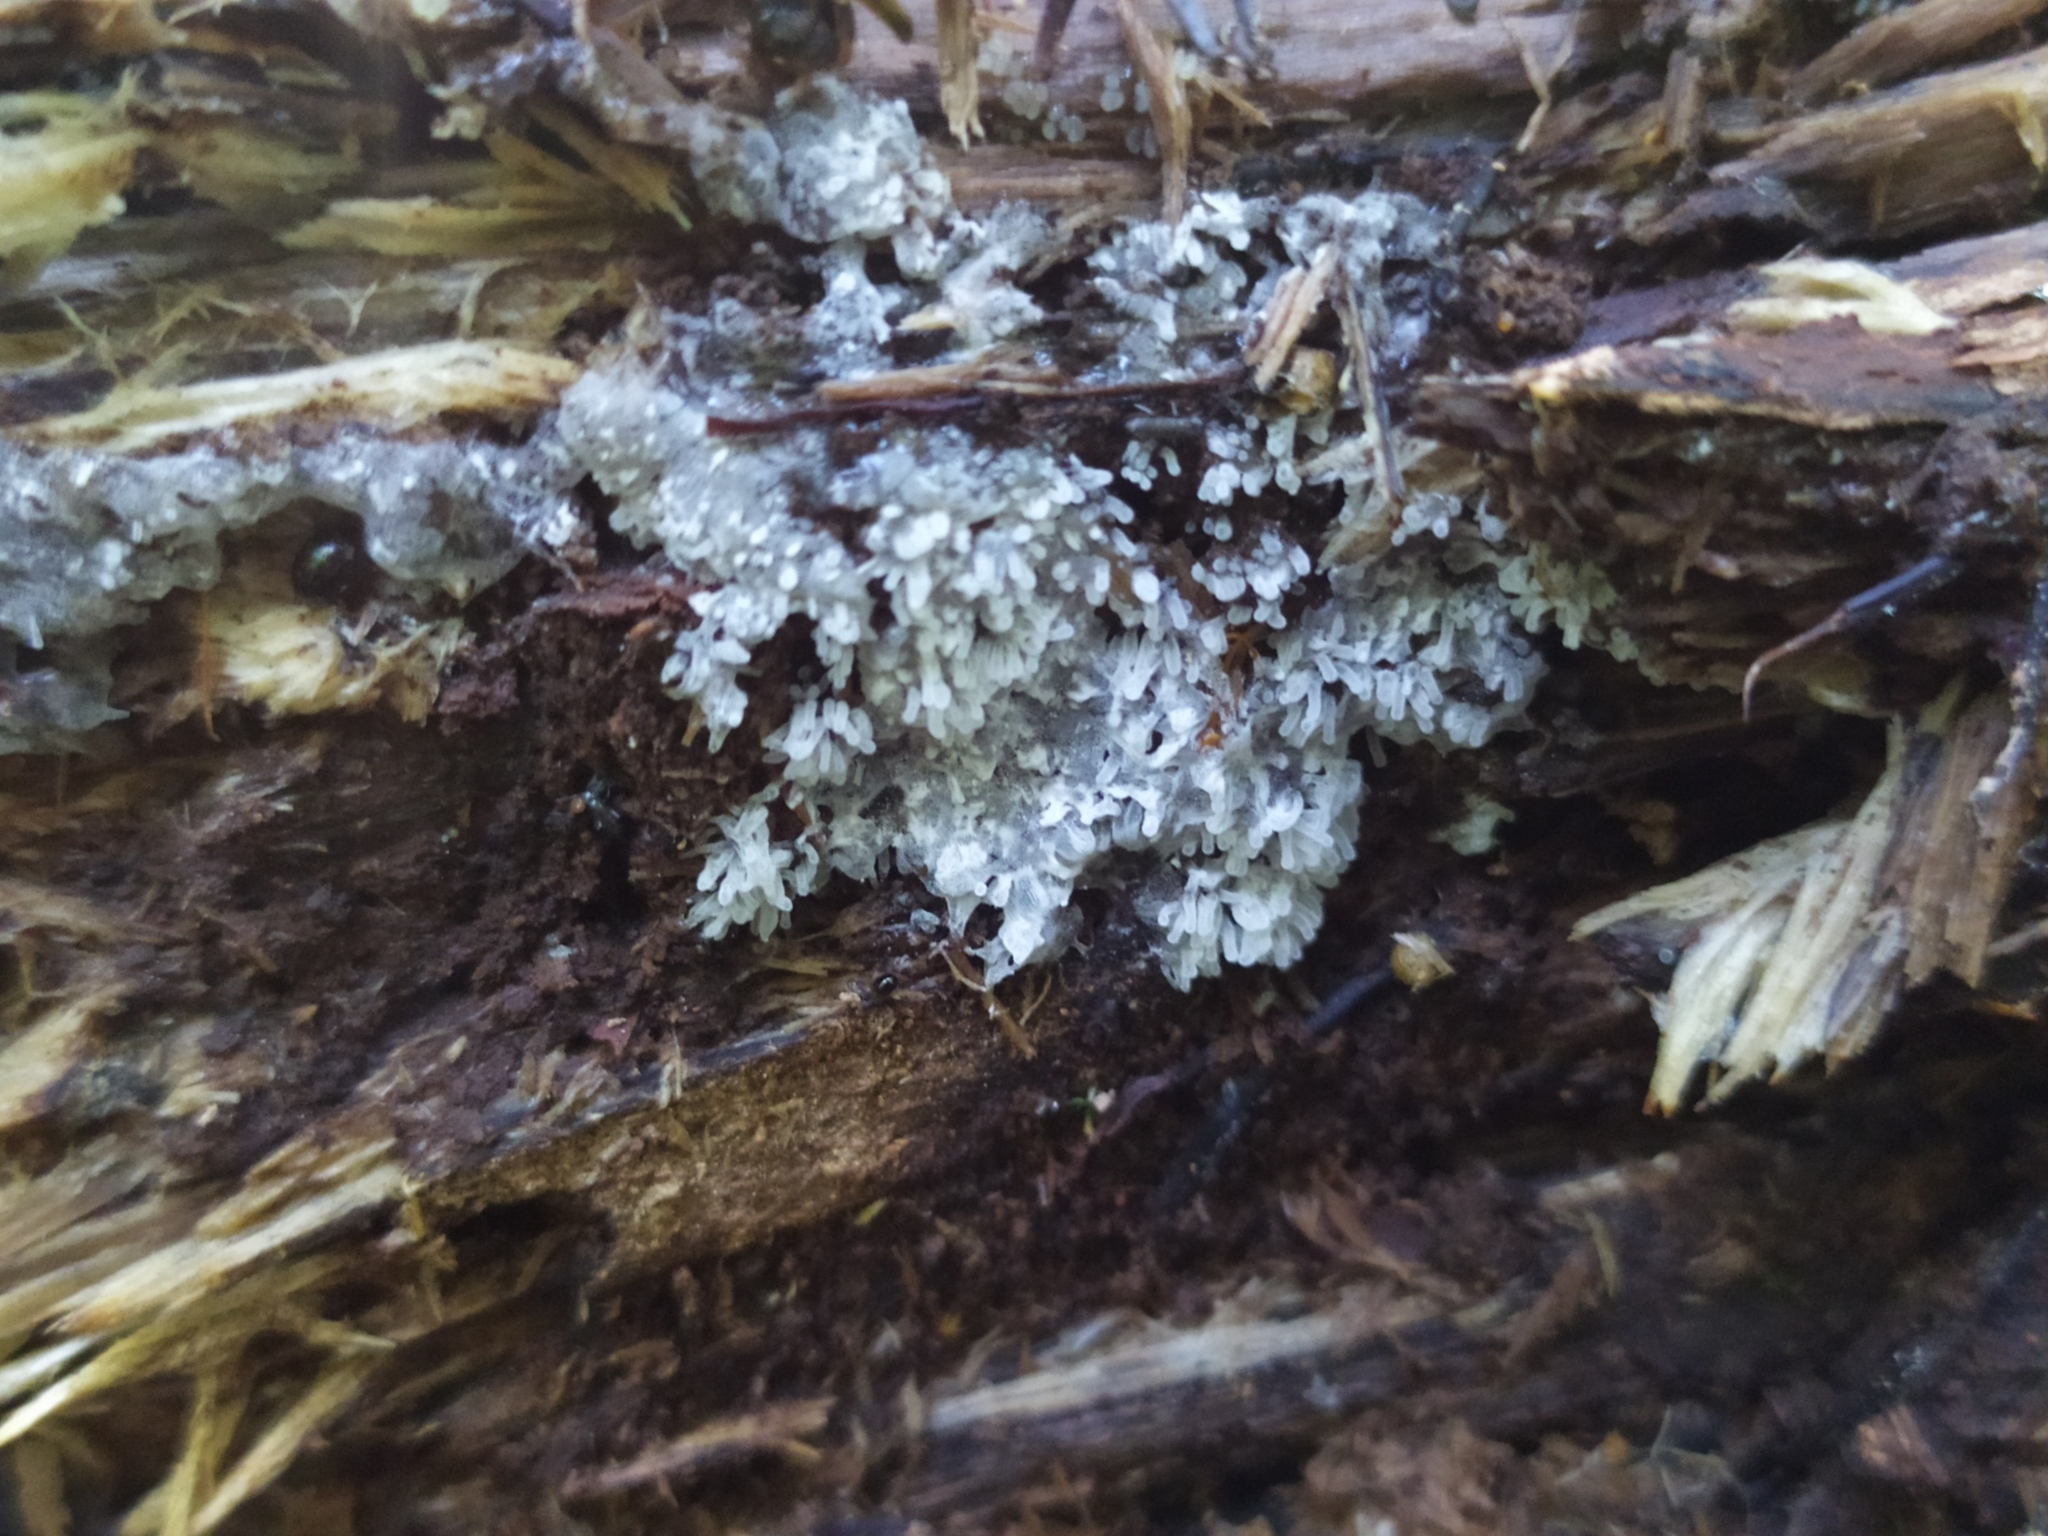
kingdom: Protozoa
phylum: Mycetozoa
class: Protosteliomycetes
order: Ceratiomyxales
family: Ceratiomyxaceae
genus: Ceratiomyxa
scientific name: Ceratiomyxa fruticulosa
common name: Honeycomb coral slime mold
